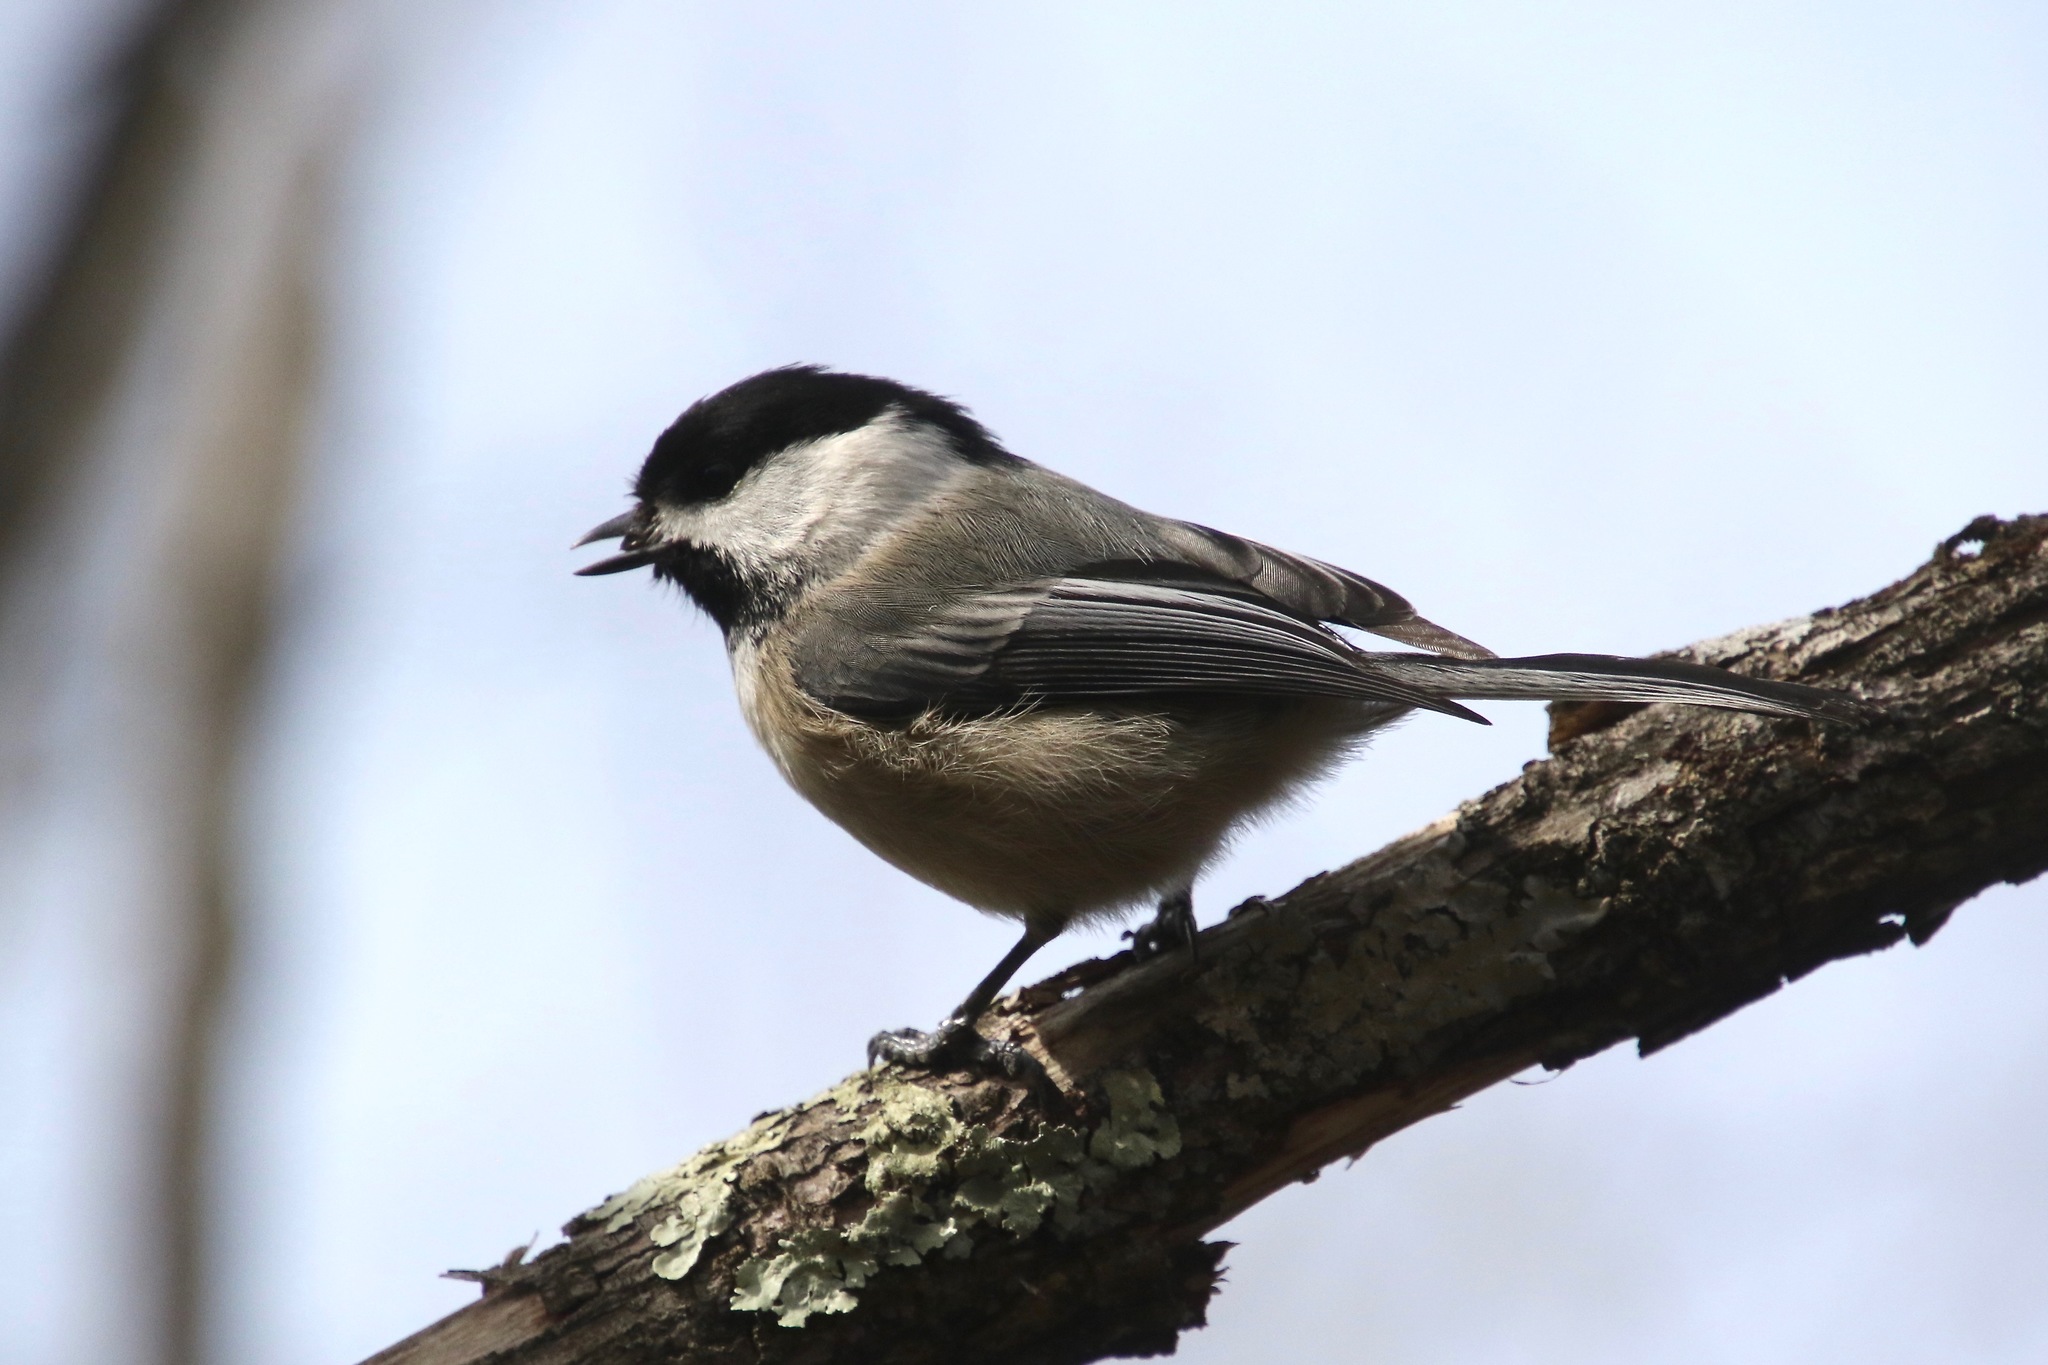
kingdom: Animalia
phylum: Chordata
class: Aves
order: Passeriformes
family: Paridae
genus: Poecile
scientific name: Poecile atricapillus
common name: Black-capped chickadee
